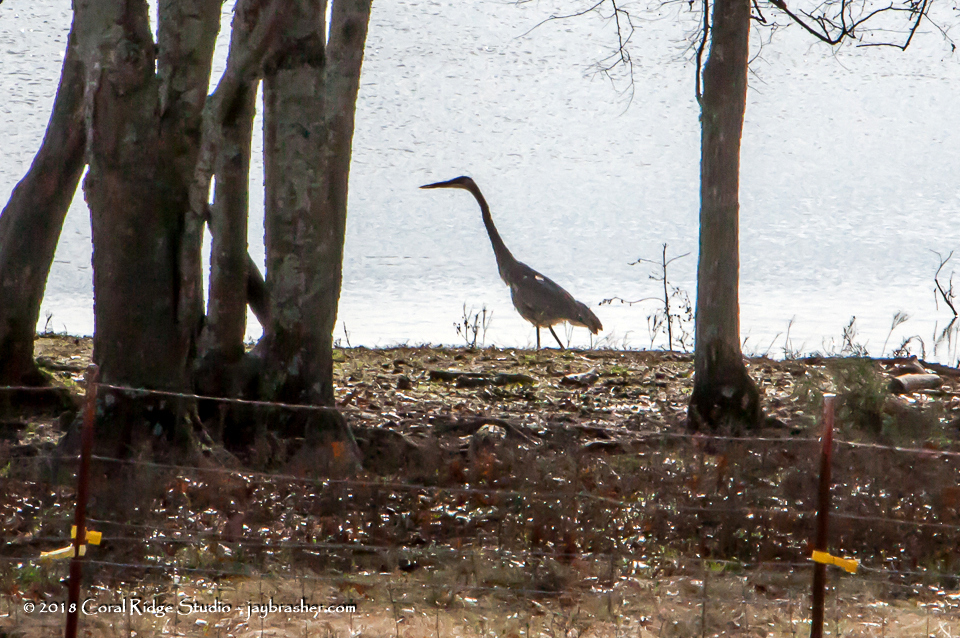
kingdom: Animalia
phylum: Chordata
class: Aves
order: Pelecaniformes
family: Ardeidae
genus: Ardea
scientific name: Ardea herodias
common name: Great blue heron
